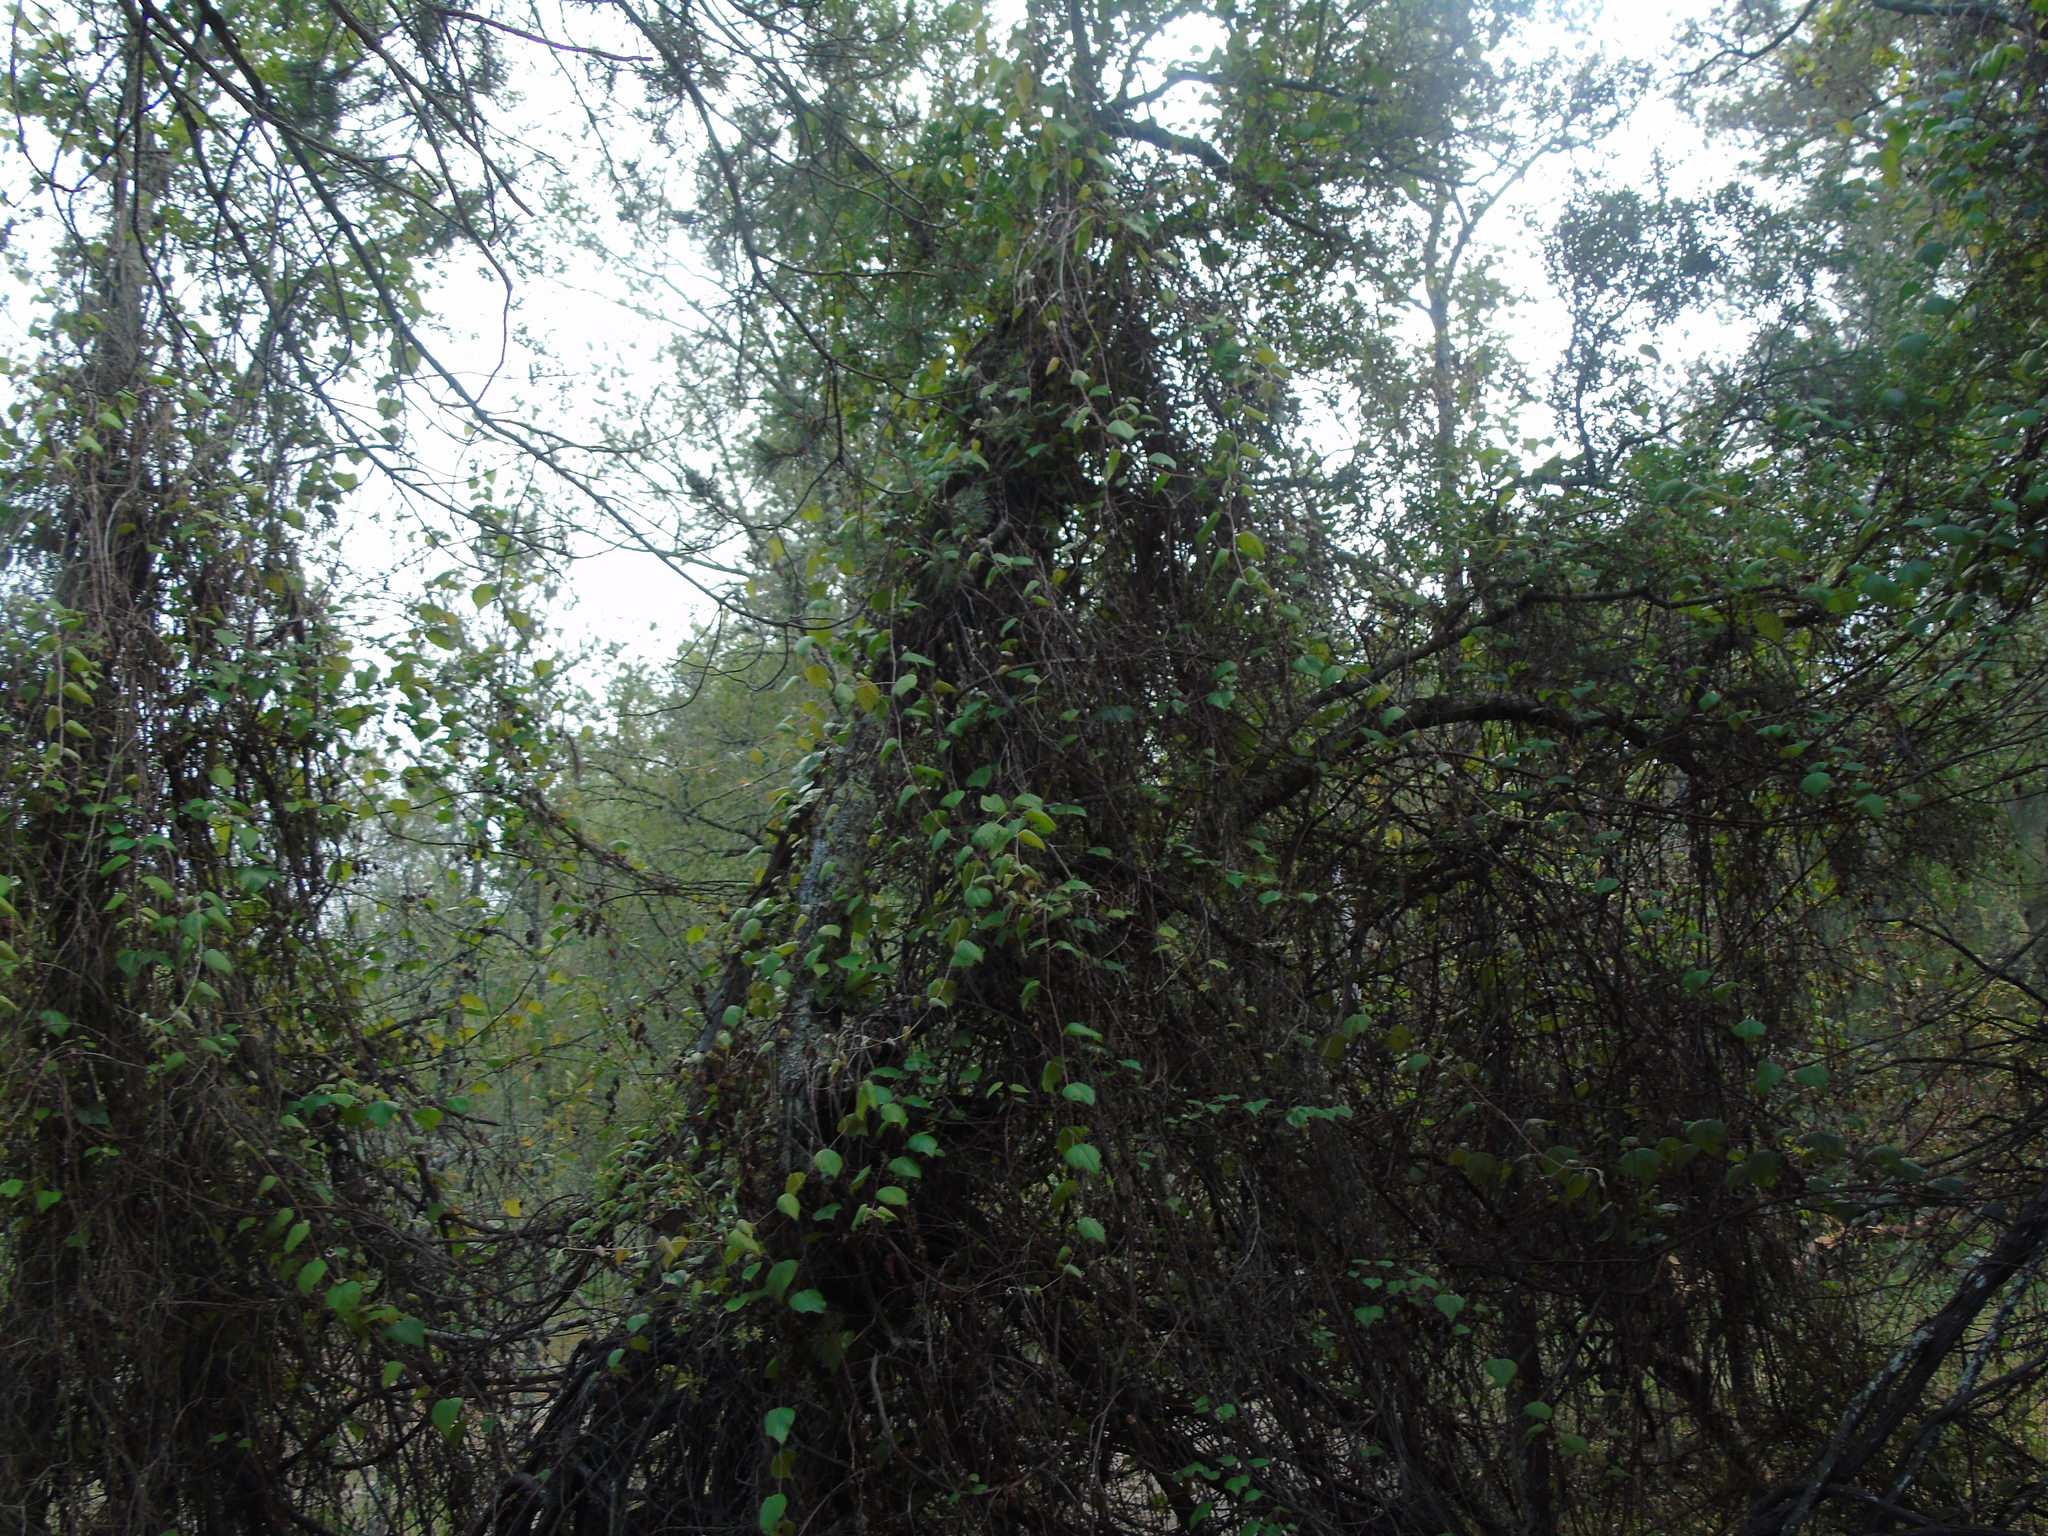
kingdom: Plantae
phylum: Tracheophyta
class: Magnoliopsida
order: Vitales
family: Vitaceae
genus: Vitis
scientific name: Vitis peninsularis
